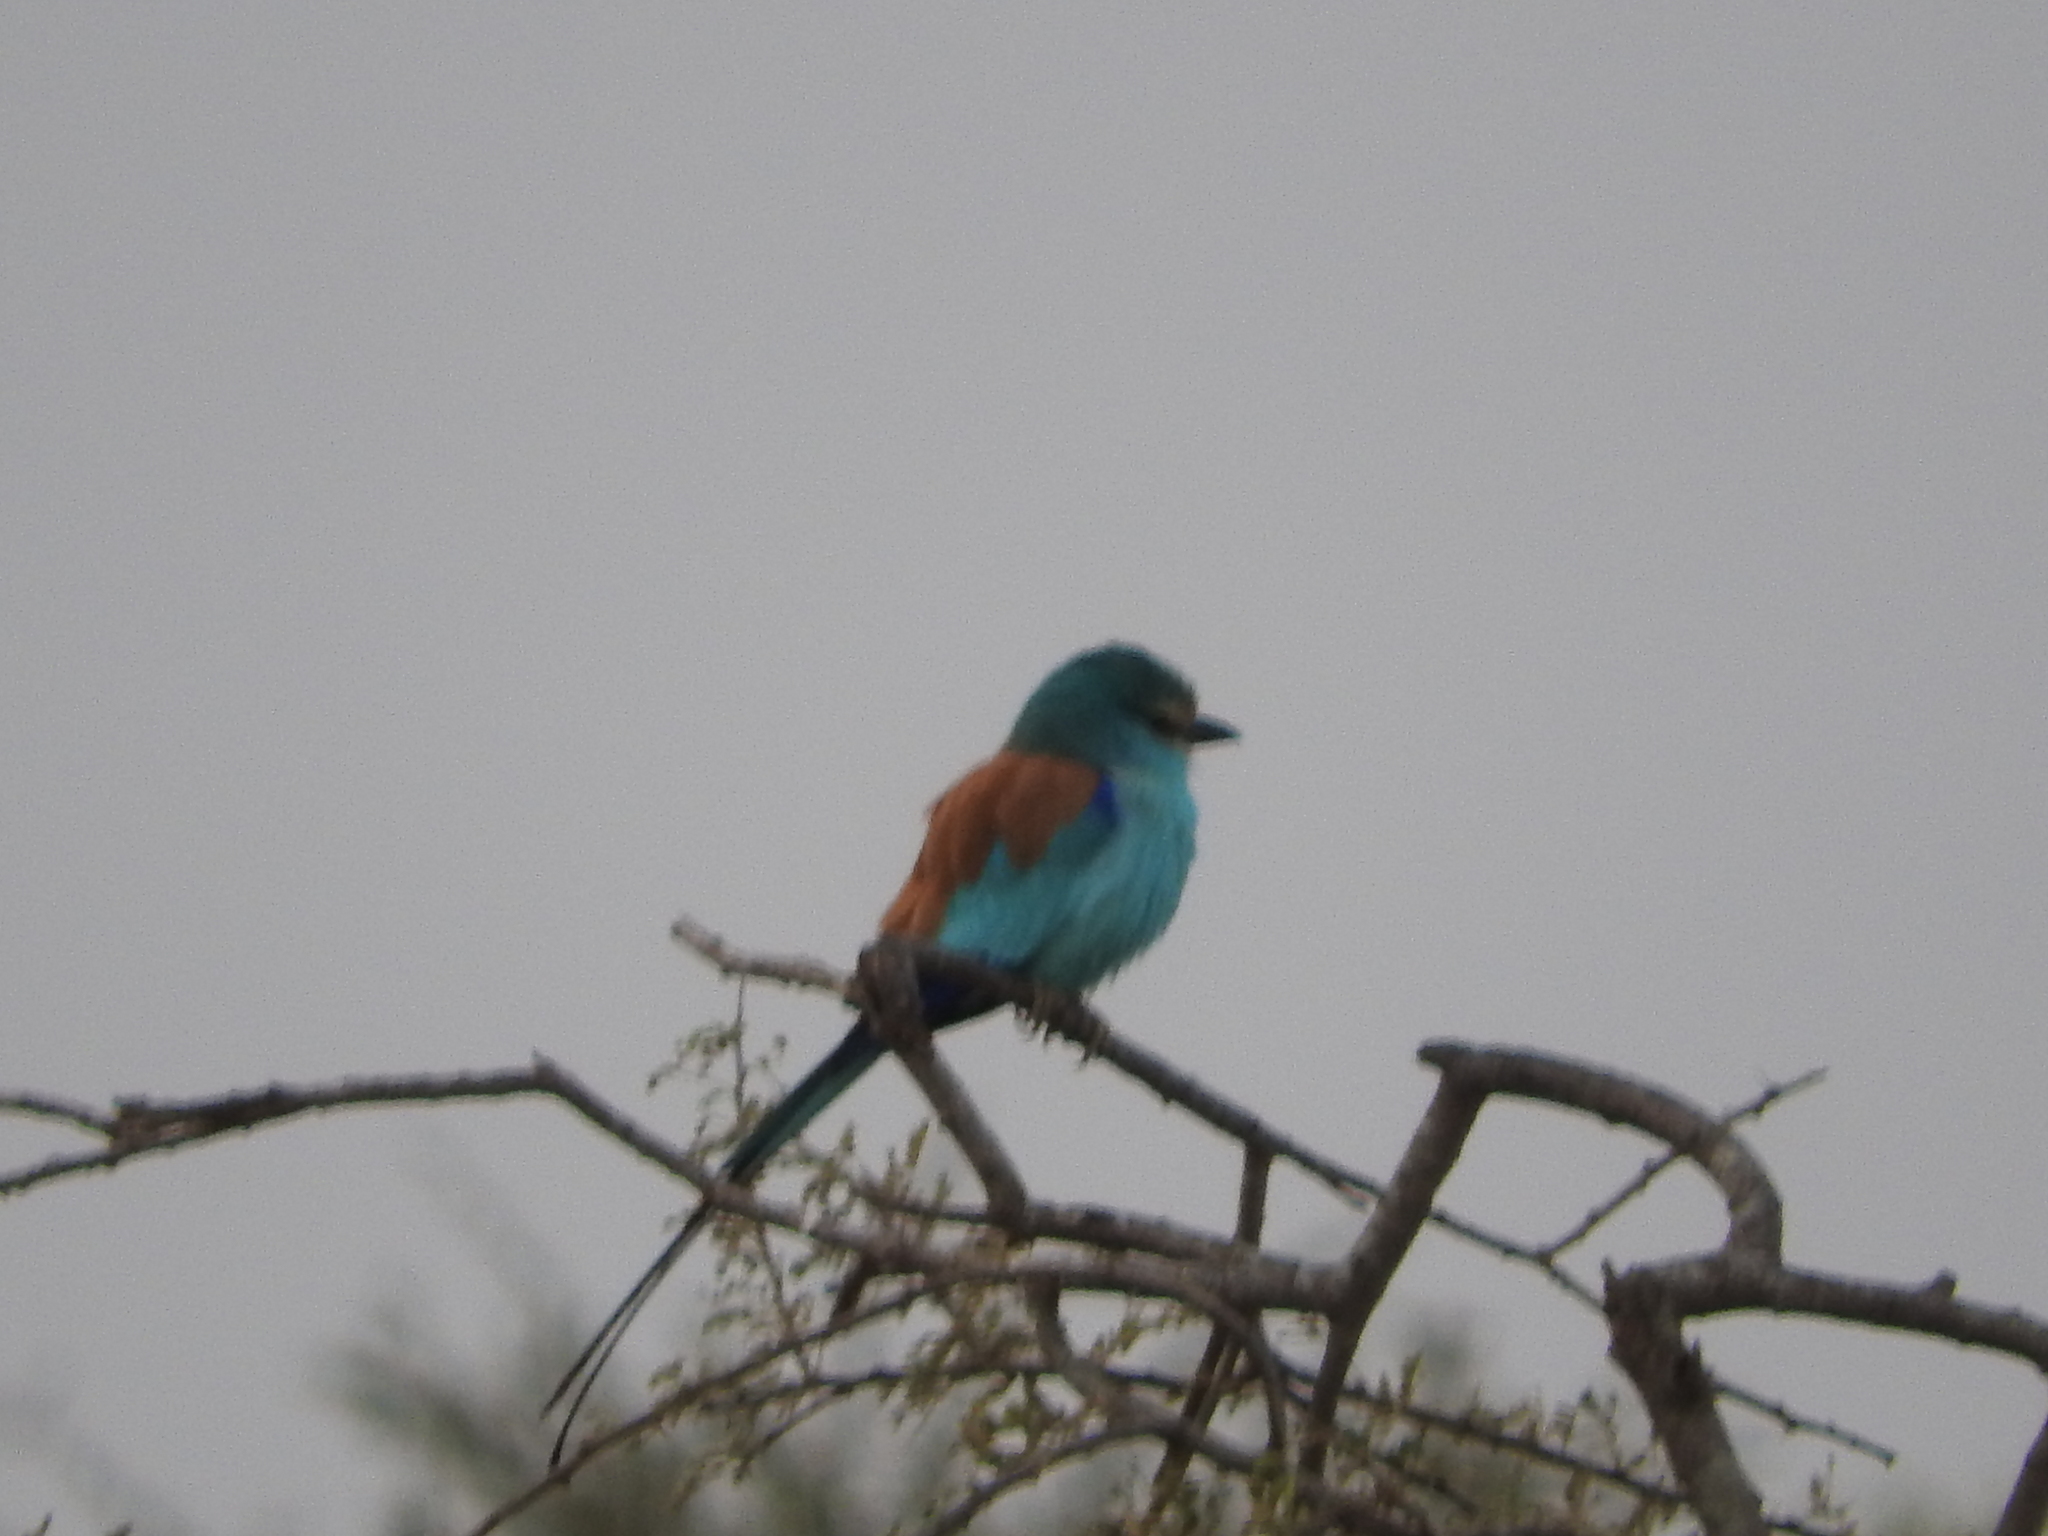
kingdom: Animalia
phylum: Chordata
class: Aves
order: Coraciiformes
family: Coraciidae
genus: Coracias
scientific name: Coracias abyssinicus
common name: Abyssinian roller
